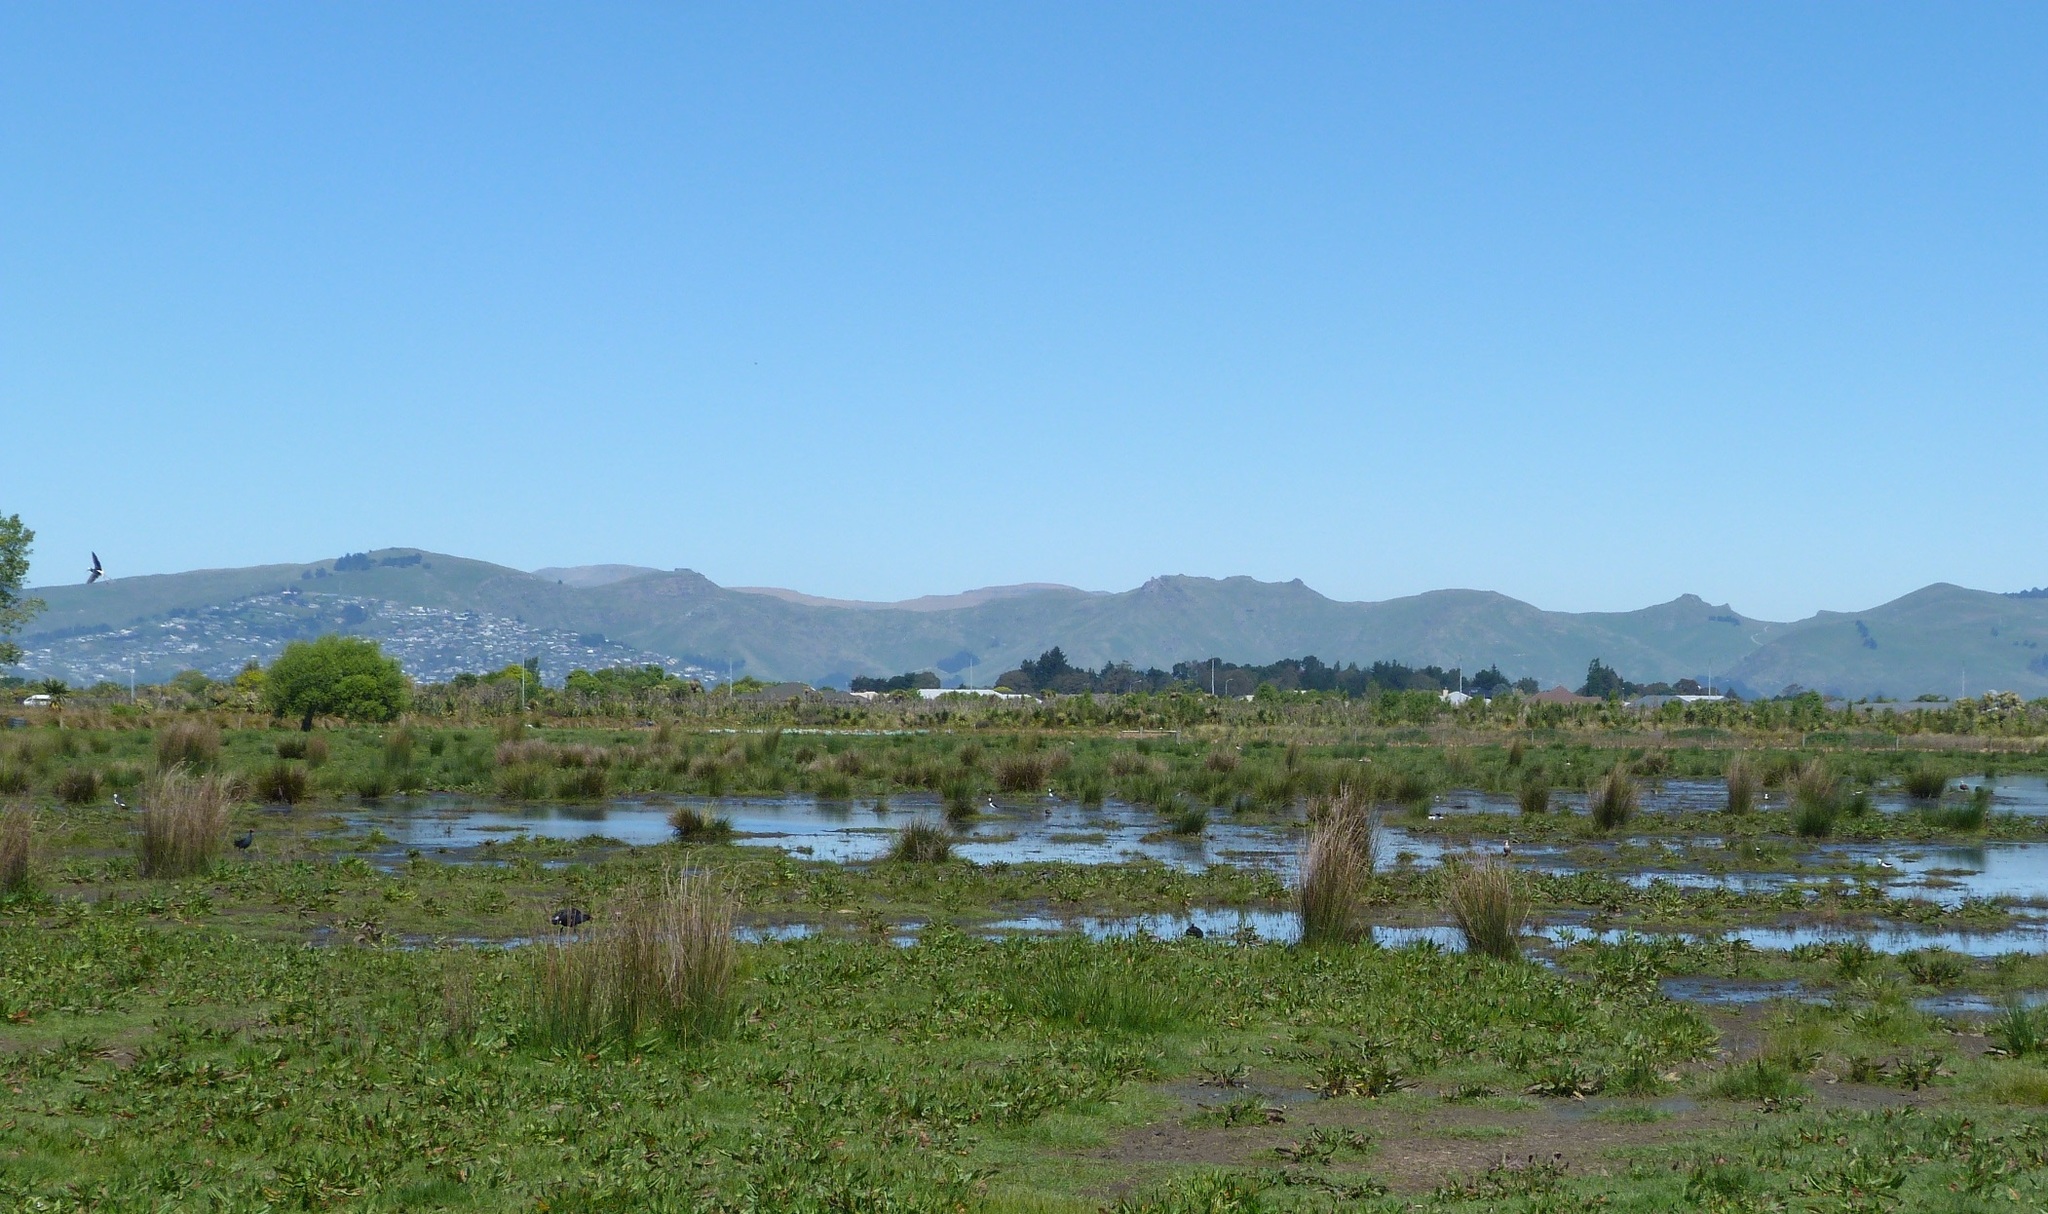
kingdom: Animalia
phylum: Chordata
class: Aves
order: Charadriiformes
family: Recurvirostridae
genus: Himantopus
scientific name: Himantopus leucocephalus
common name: White-headed stilt
